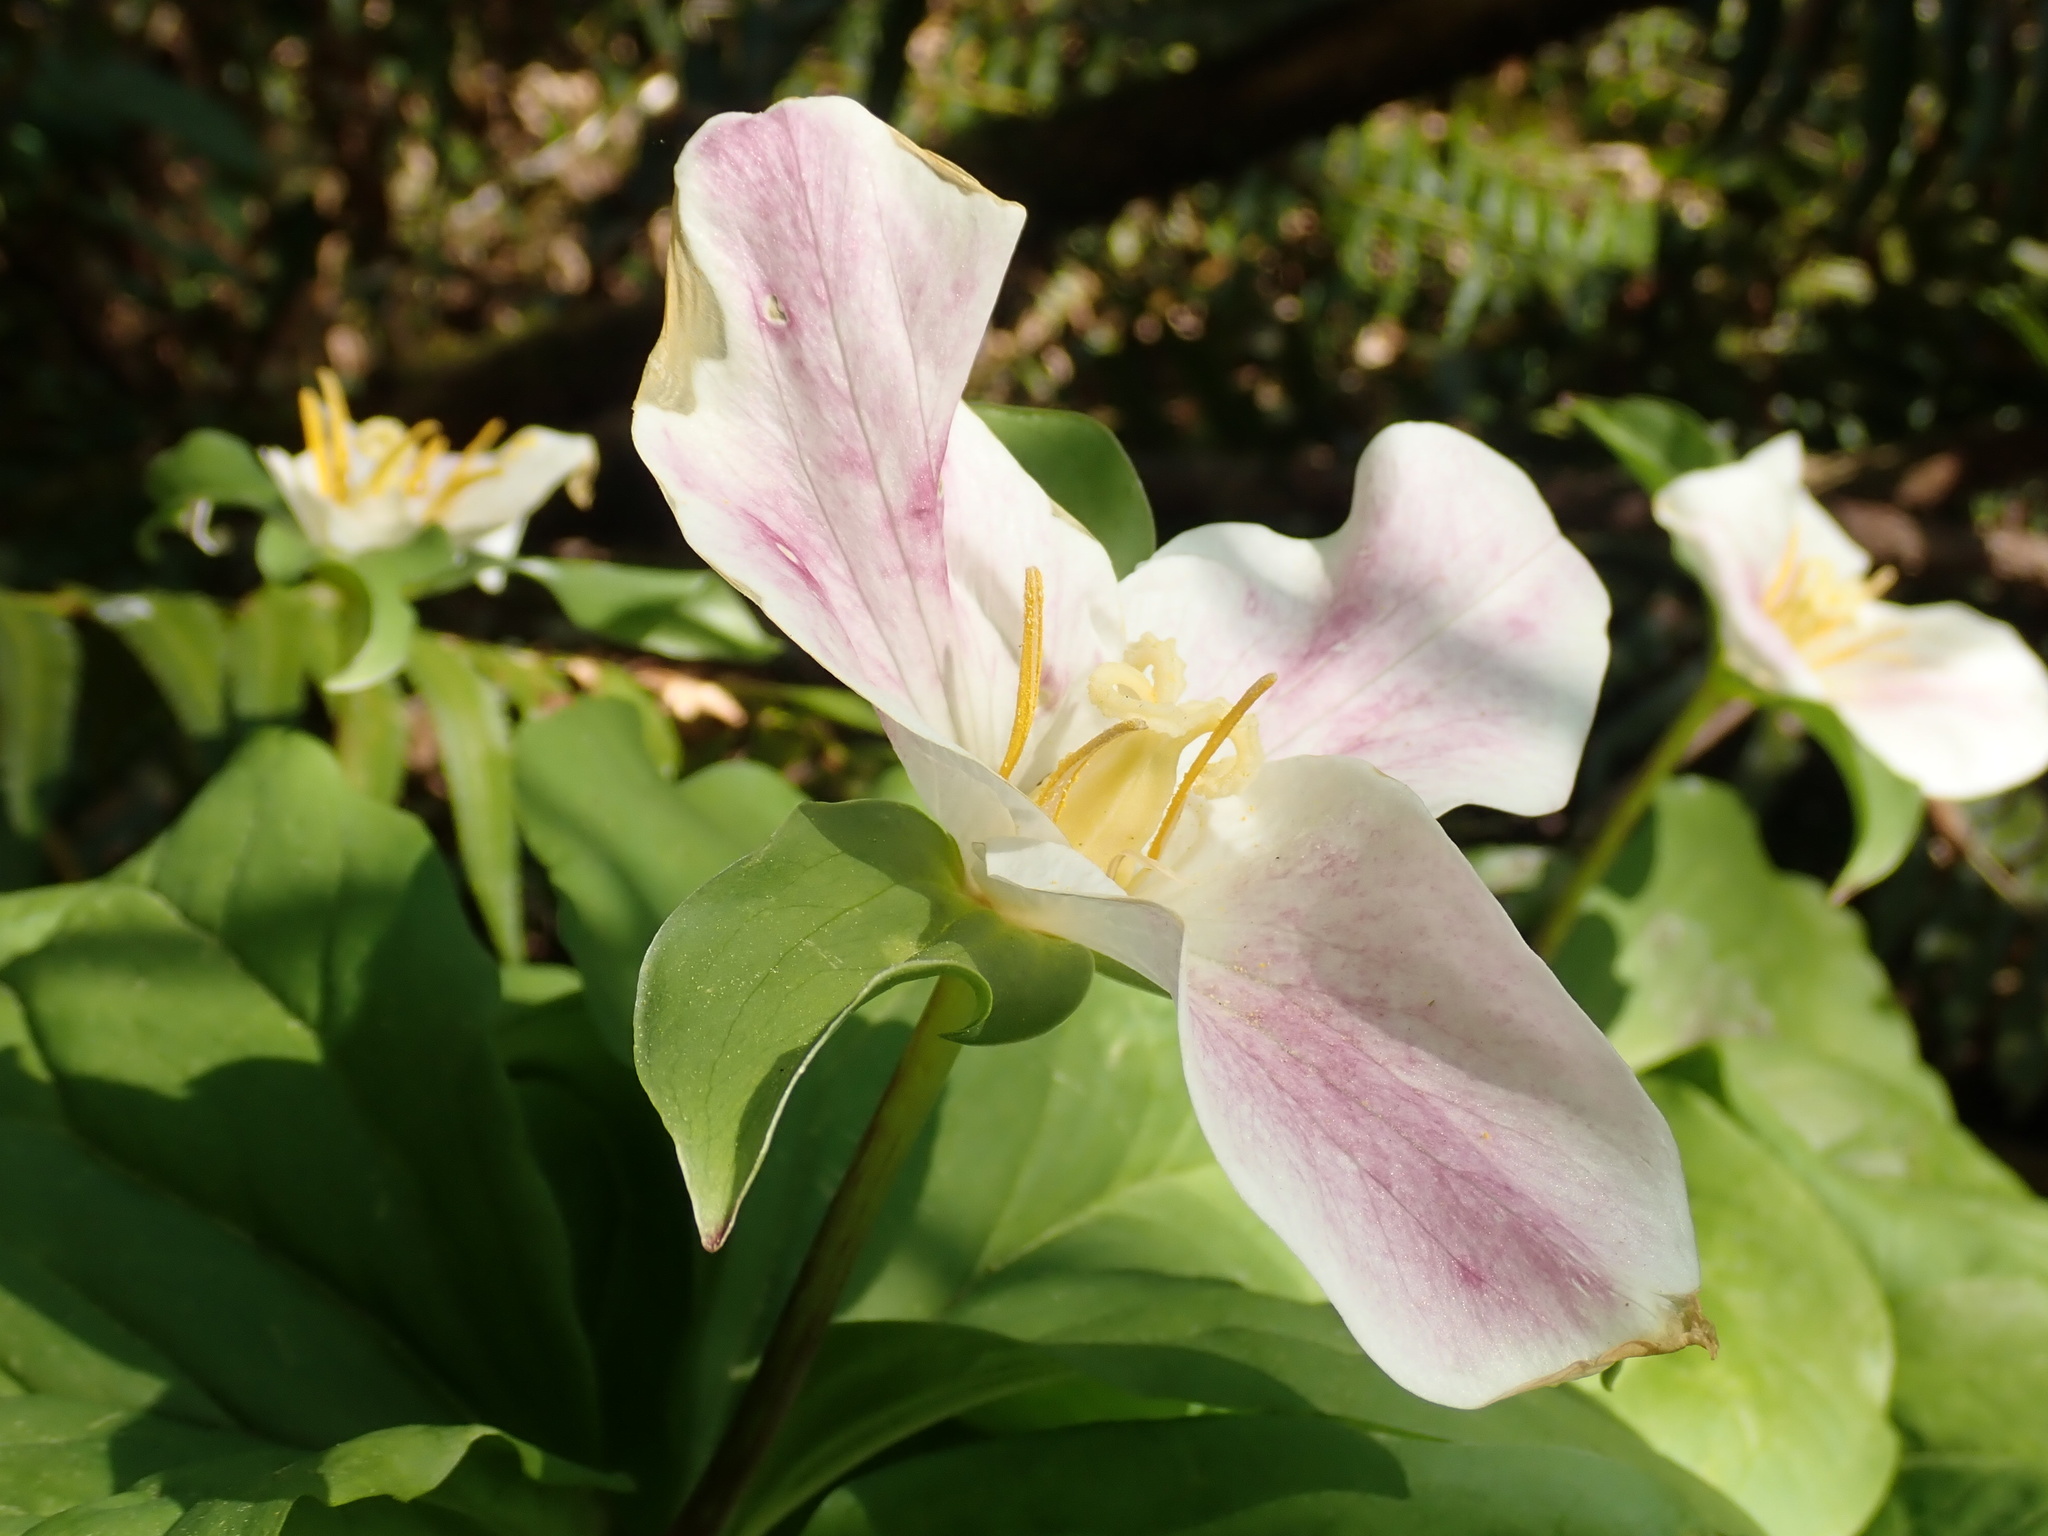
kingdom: Plantae
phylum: Tracheophyta
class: Liliopsida
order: Liliales
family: Melanthiaceae
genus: Trillium
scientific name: Trillium ovatum
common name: Pacific trillium
